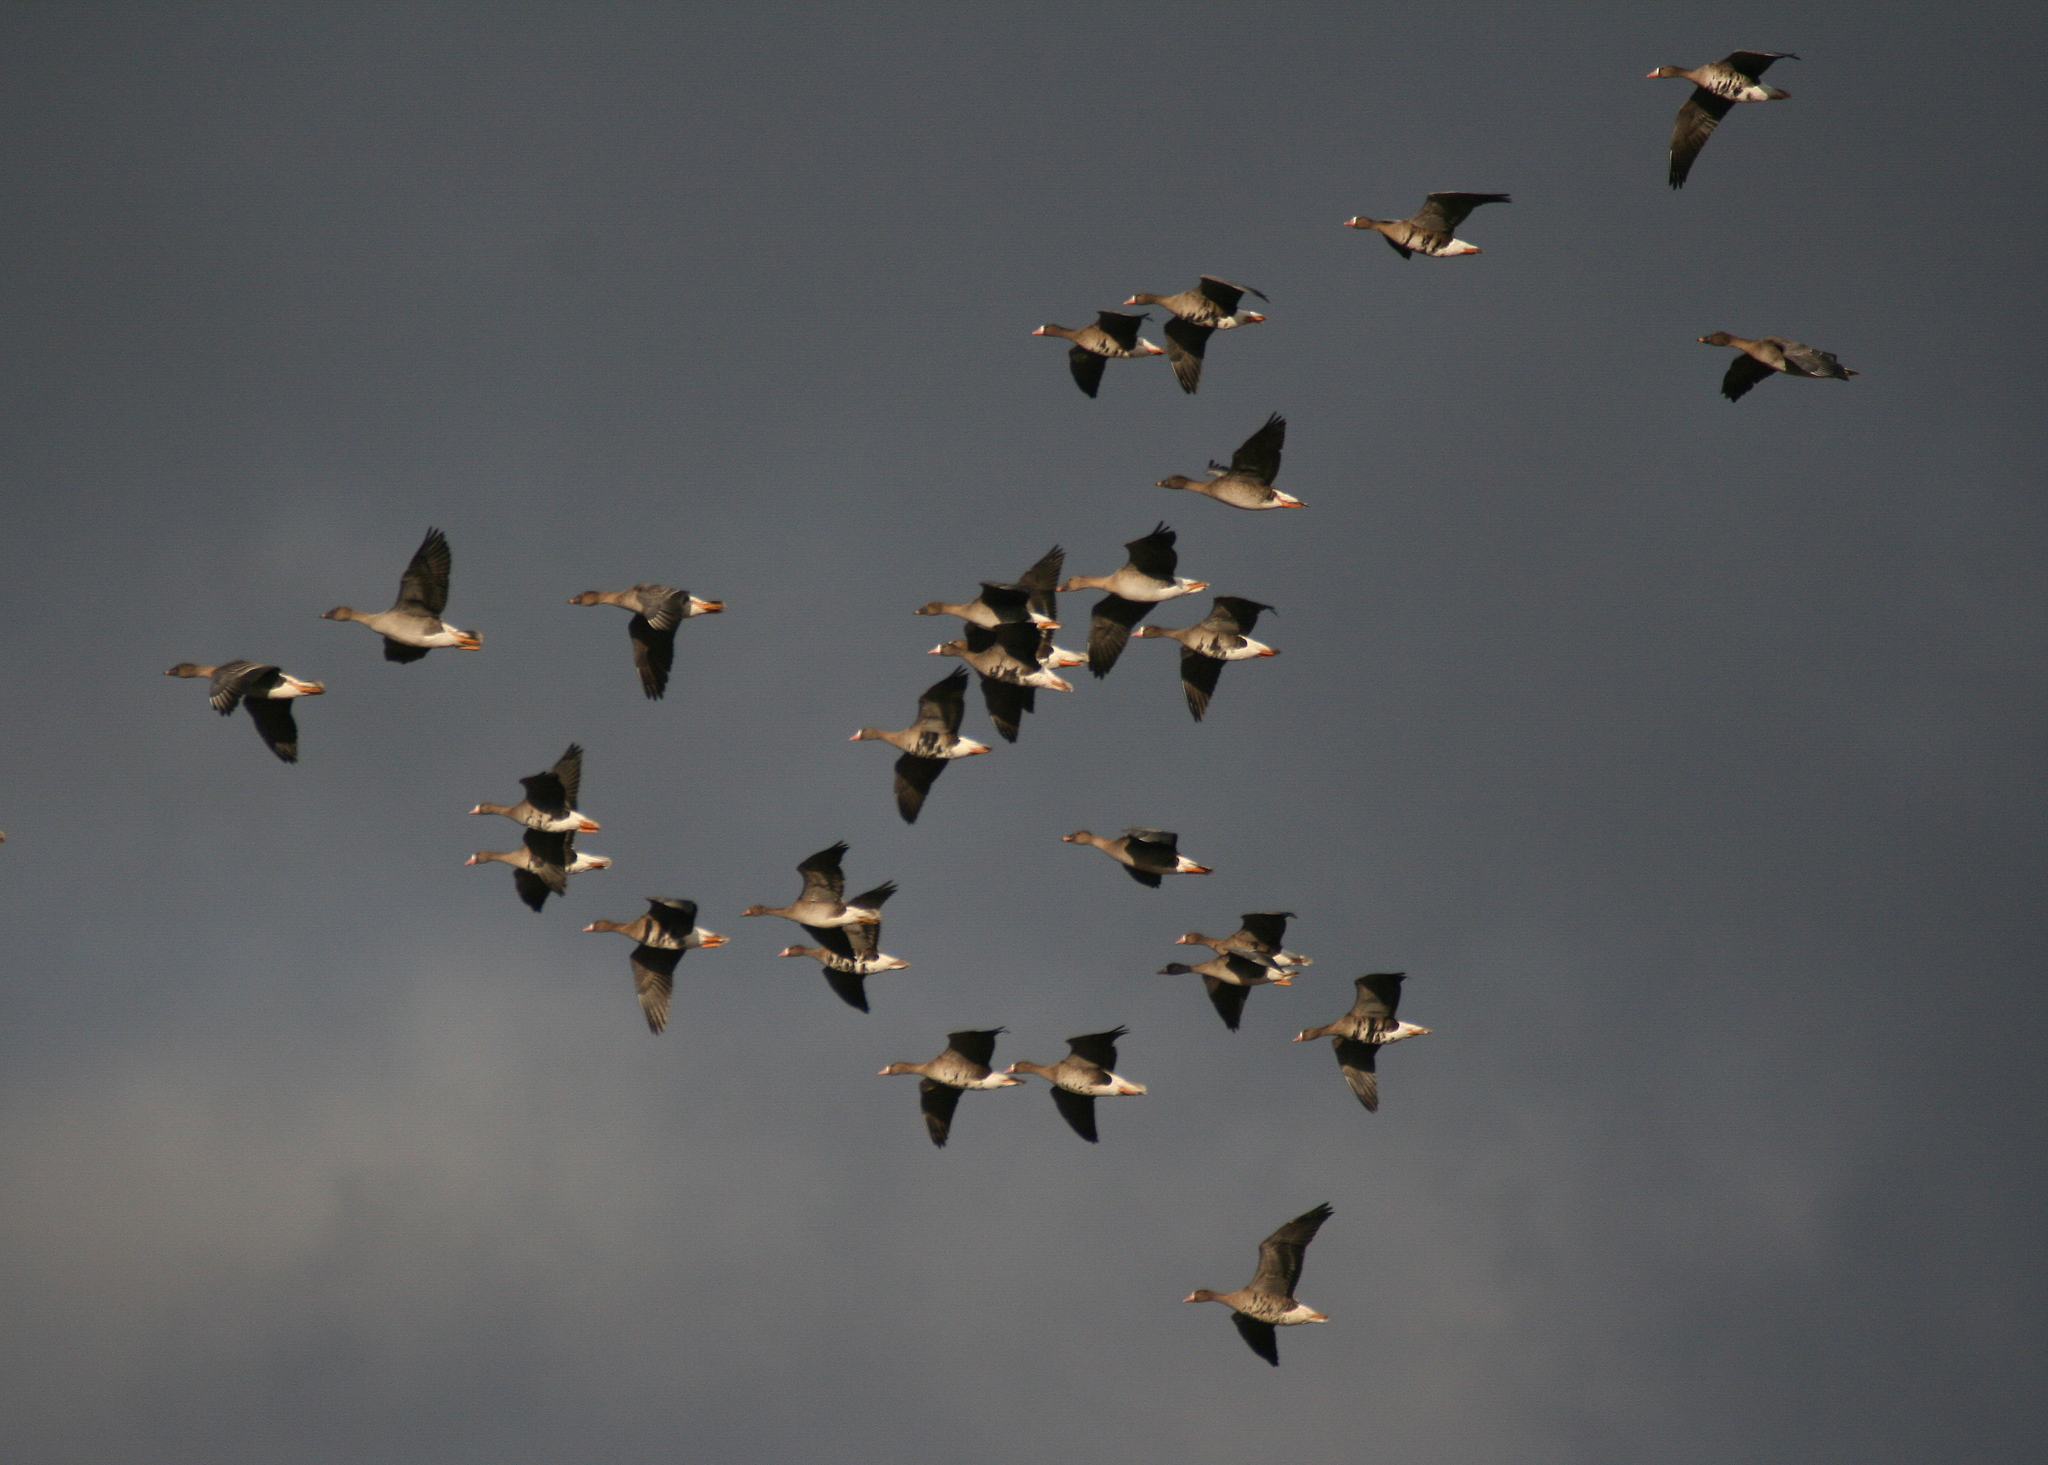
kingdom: Animalia
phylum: Chordata
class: Aves
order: Anseriformes
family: Anatidae
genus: Anser
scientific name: Anser serrirostris
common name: Tundra bean goose
